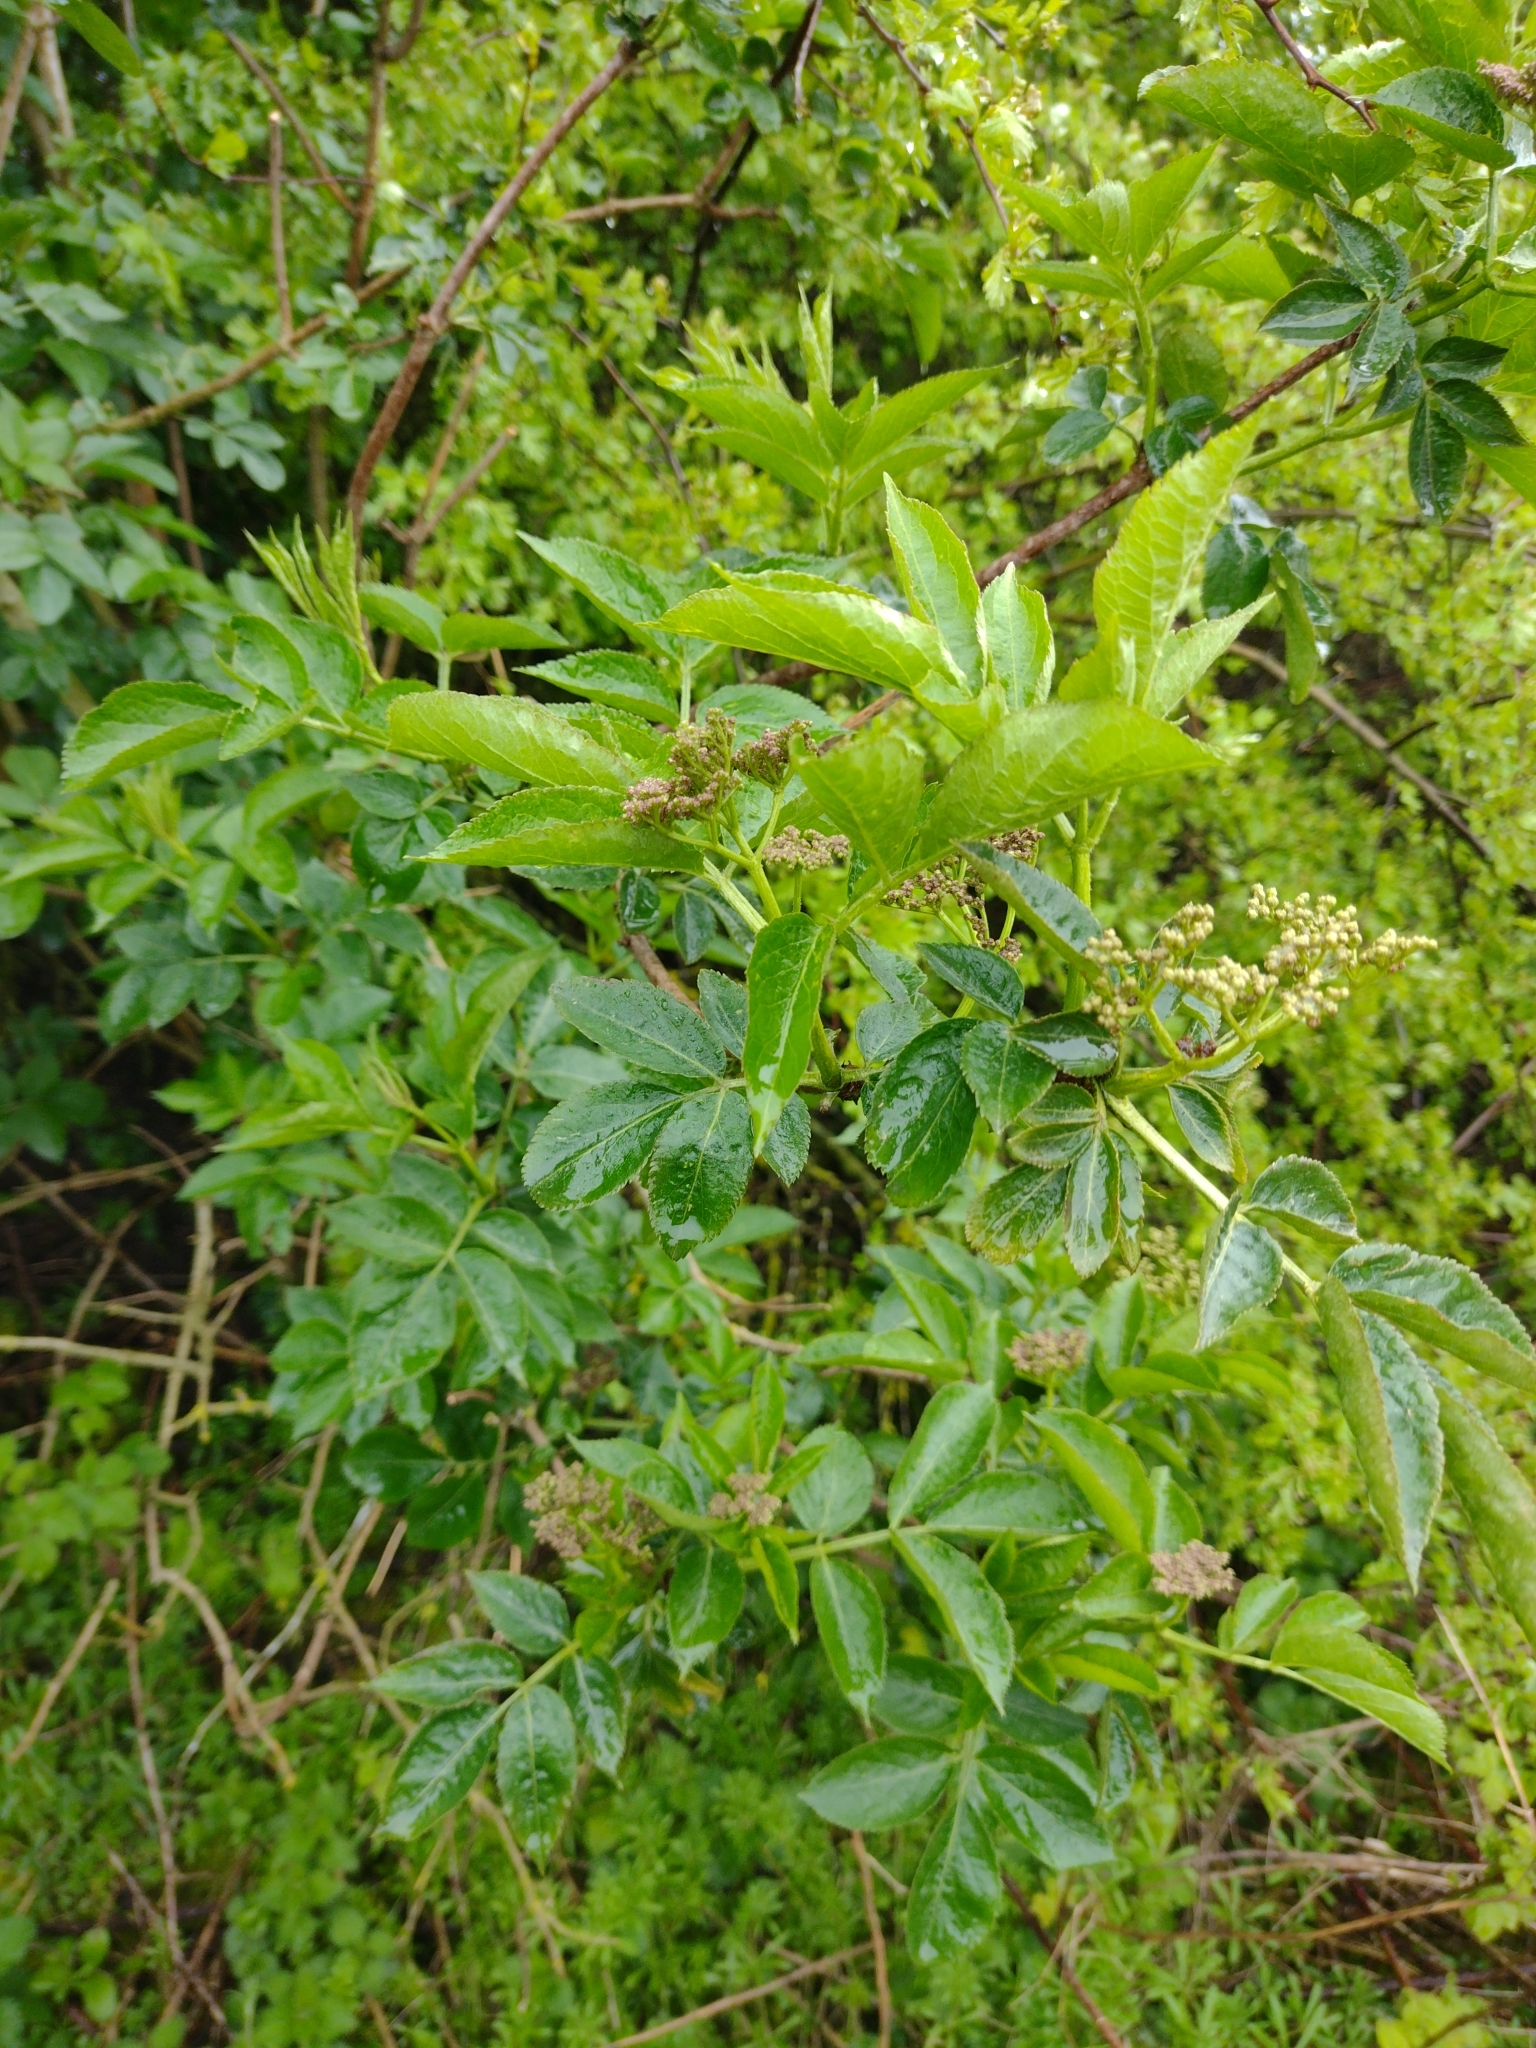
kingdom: Plantae
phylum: Tracheophyta
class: Magnoliopsida
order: Dipsacales
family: Viburnaceae
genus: Sambucus
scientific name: Sambucus nigra
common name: Elder
